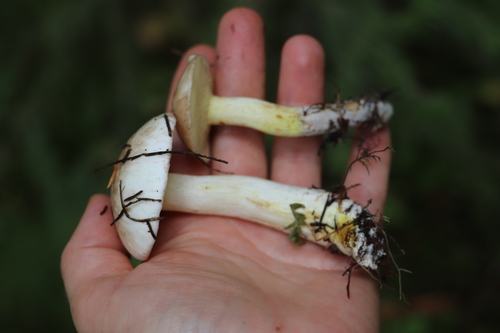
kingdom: Fungi
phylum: Basidiomycota
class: Agaricomycetes
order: Boletales
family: Suillaceae
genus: Suillus
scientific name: Suillus placidus
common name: Slippery white bolete
